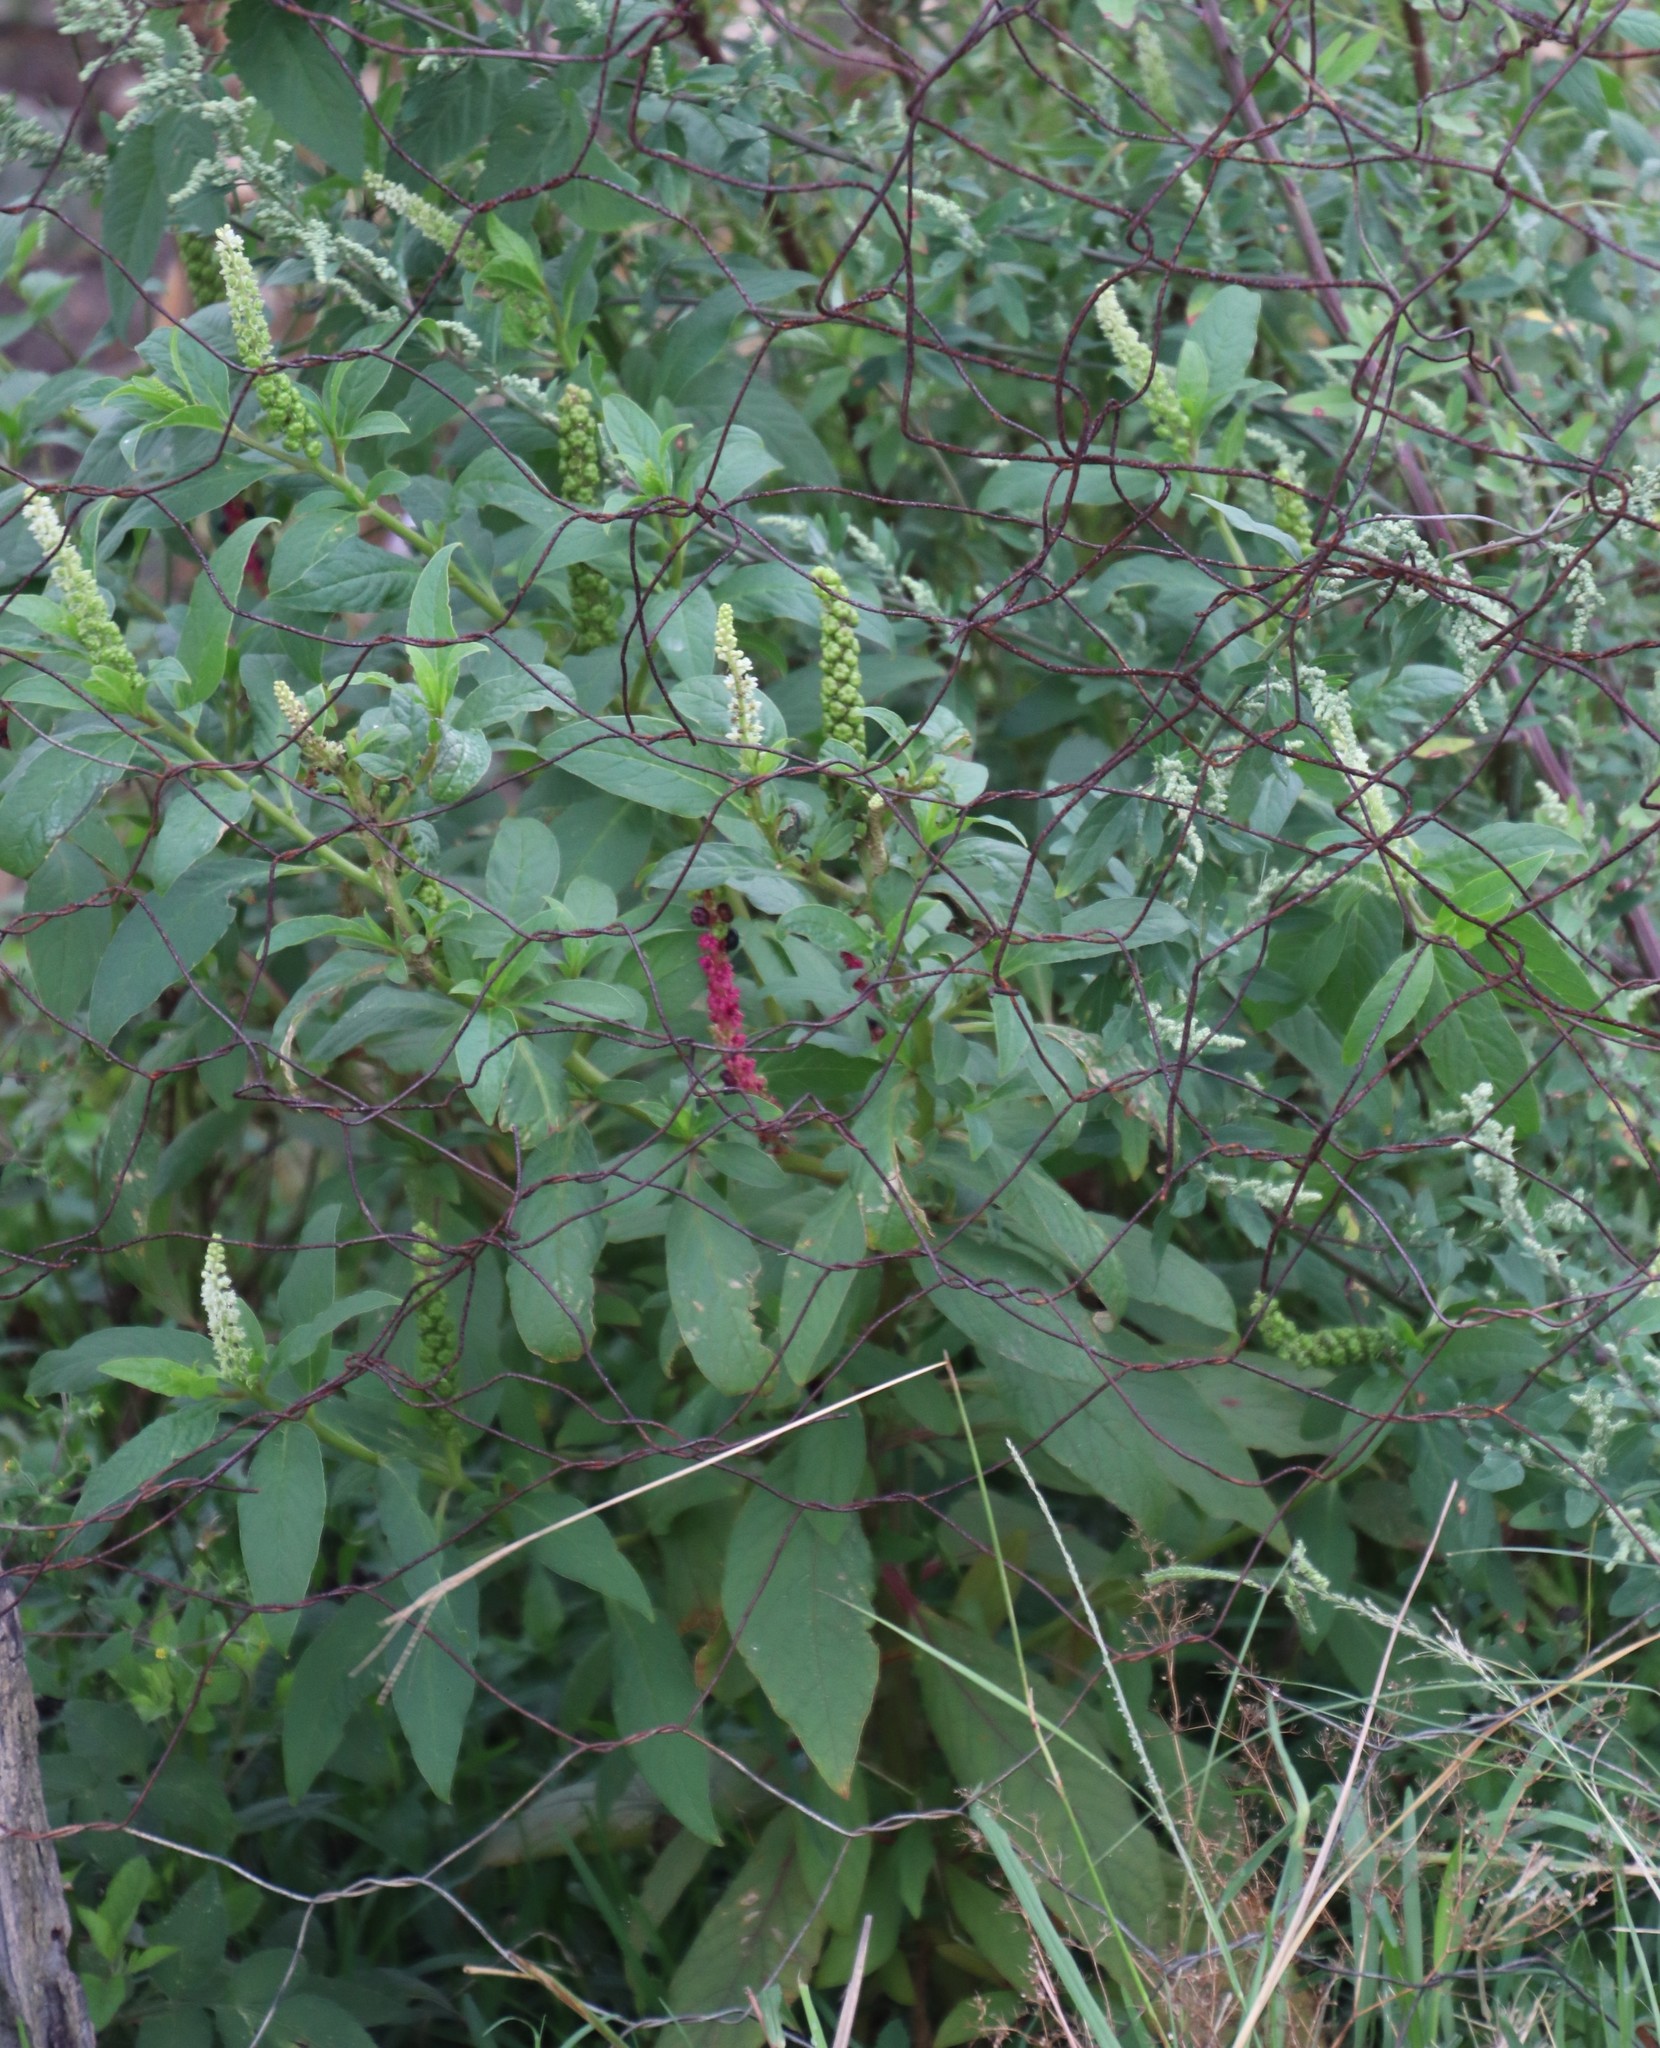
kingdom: Plantae
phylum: Tracheophyta
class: Magnoliopsida
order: Caryophyllales
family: Phytolaccaceae
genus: Phytolacca
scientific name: Phytolacca icosandra
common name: Button pokeweed
